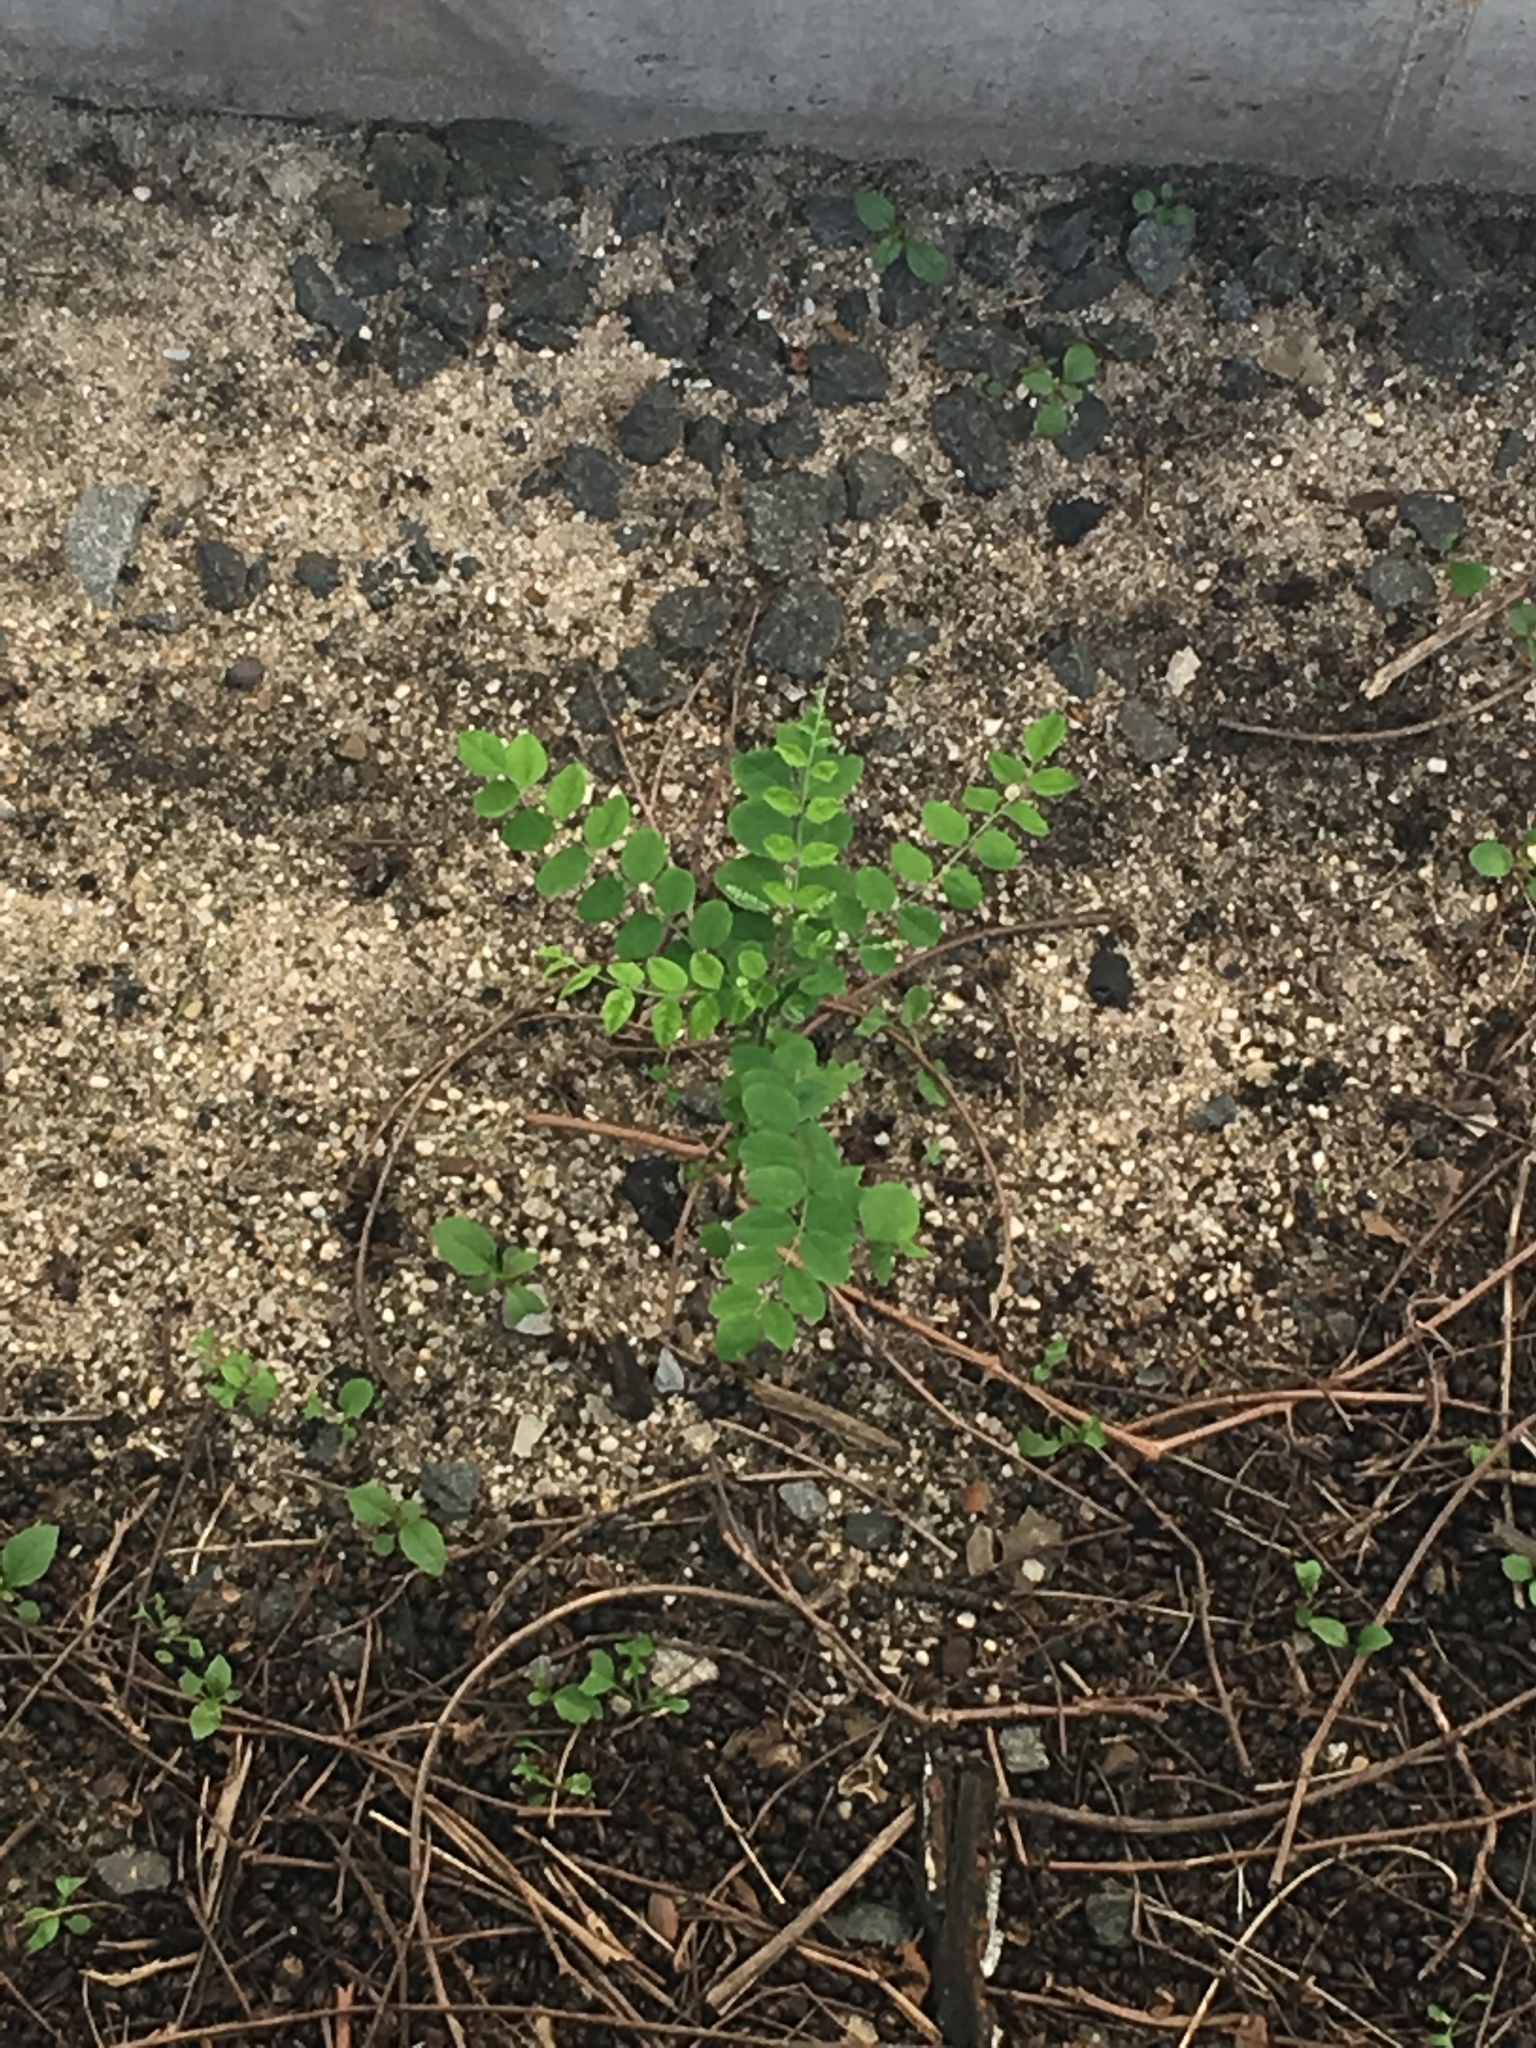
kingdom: Plantae
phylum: Tracheophyta
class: Magnoliopsida
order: Fabales
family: Fabaceae
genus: Robinia
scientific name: Robinia pseudoacacia
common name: Black locust
